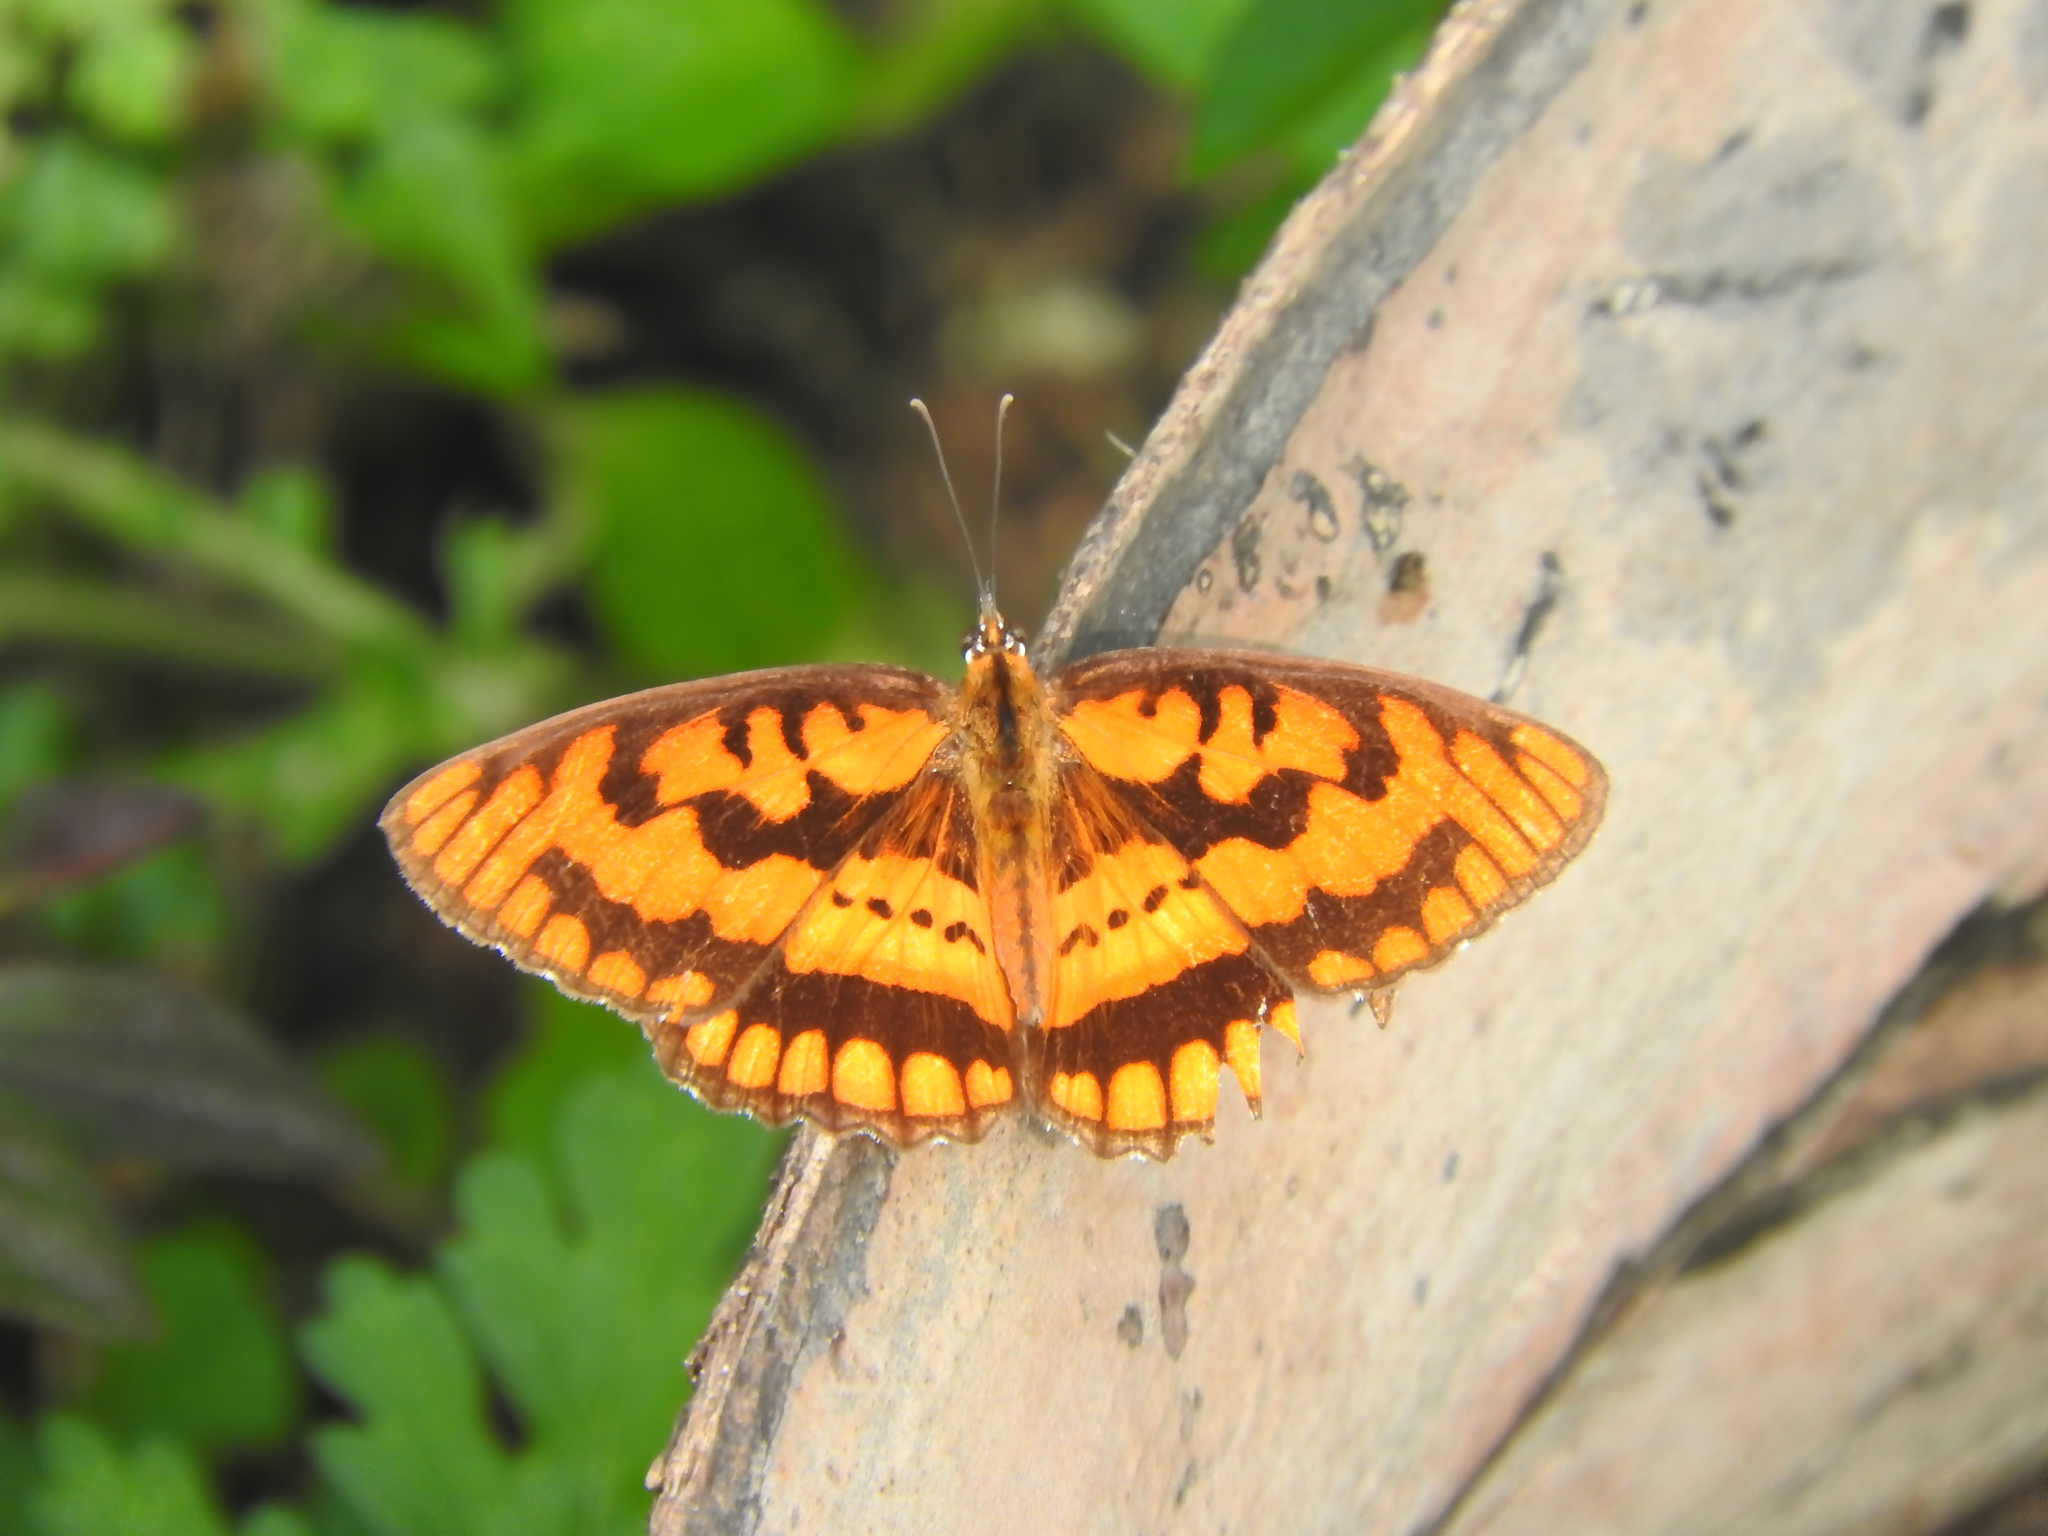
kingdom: Animalia
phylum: Arthropoda
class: Insecta
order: Lepidoptera
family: Nymphalidae
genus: Byblia
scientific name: Byblia ilithyia
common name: Spotted joker
